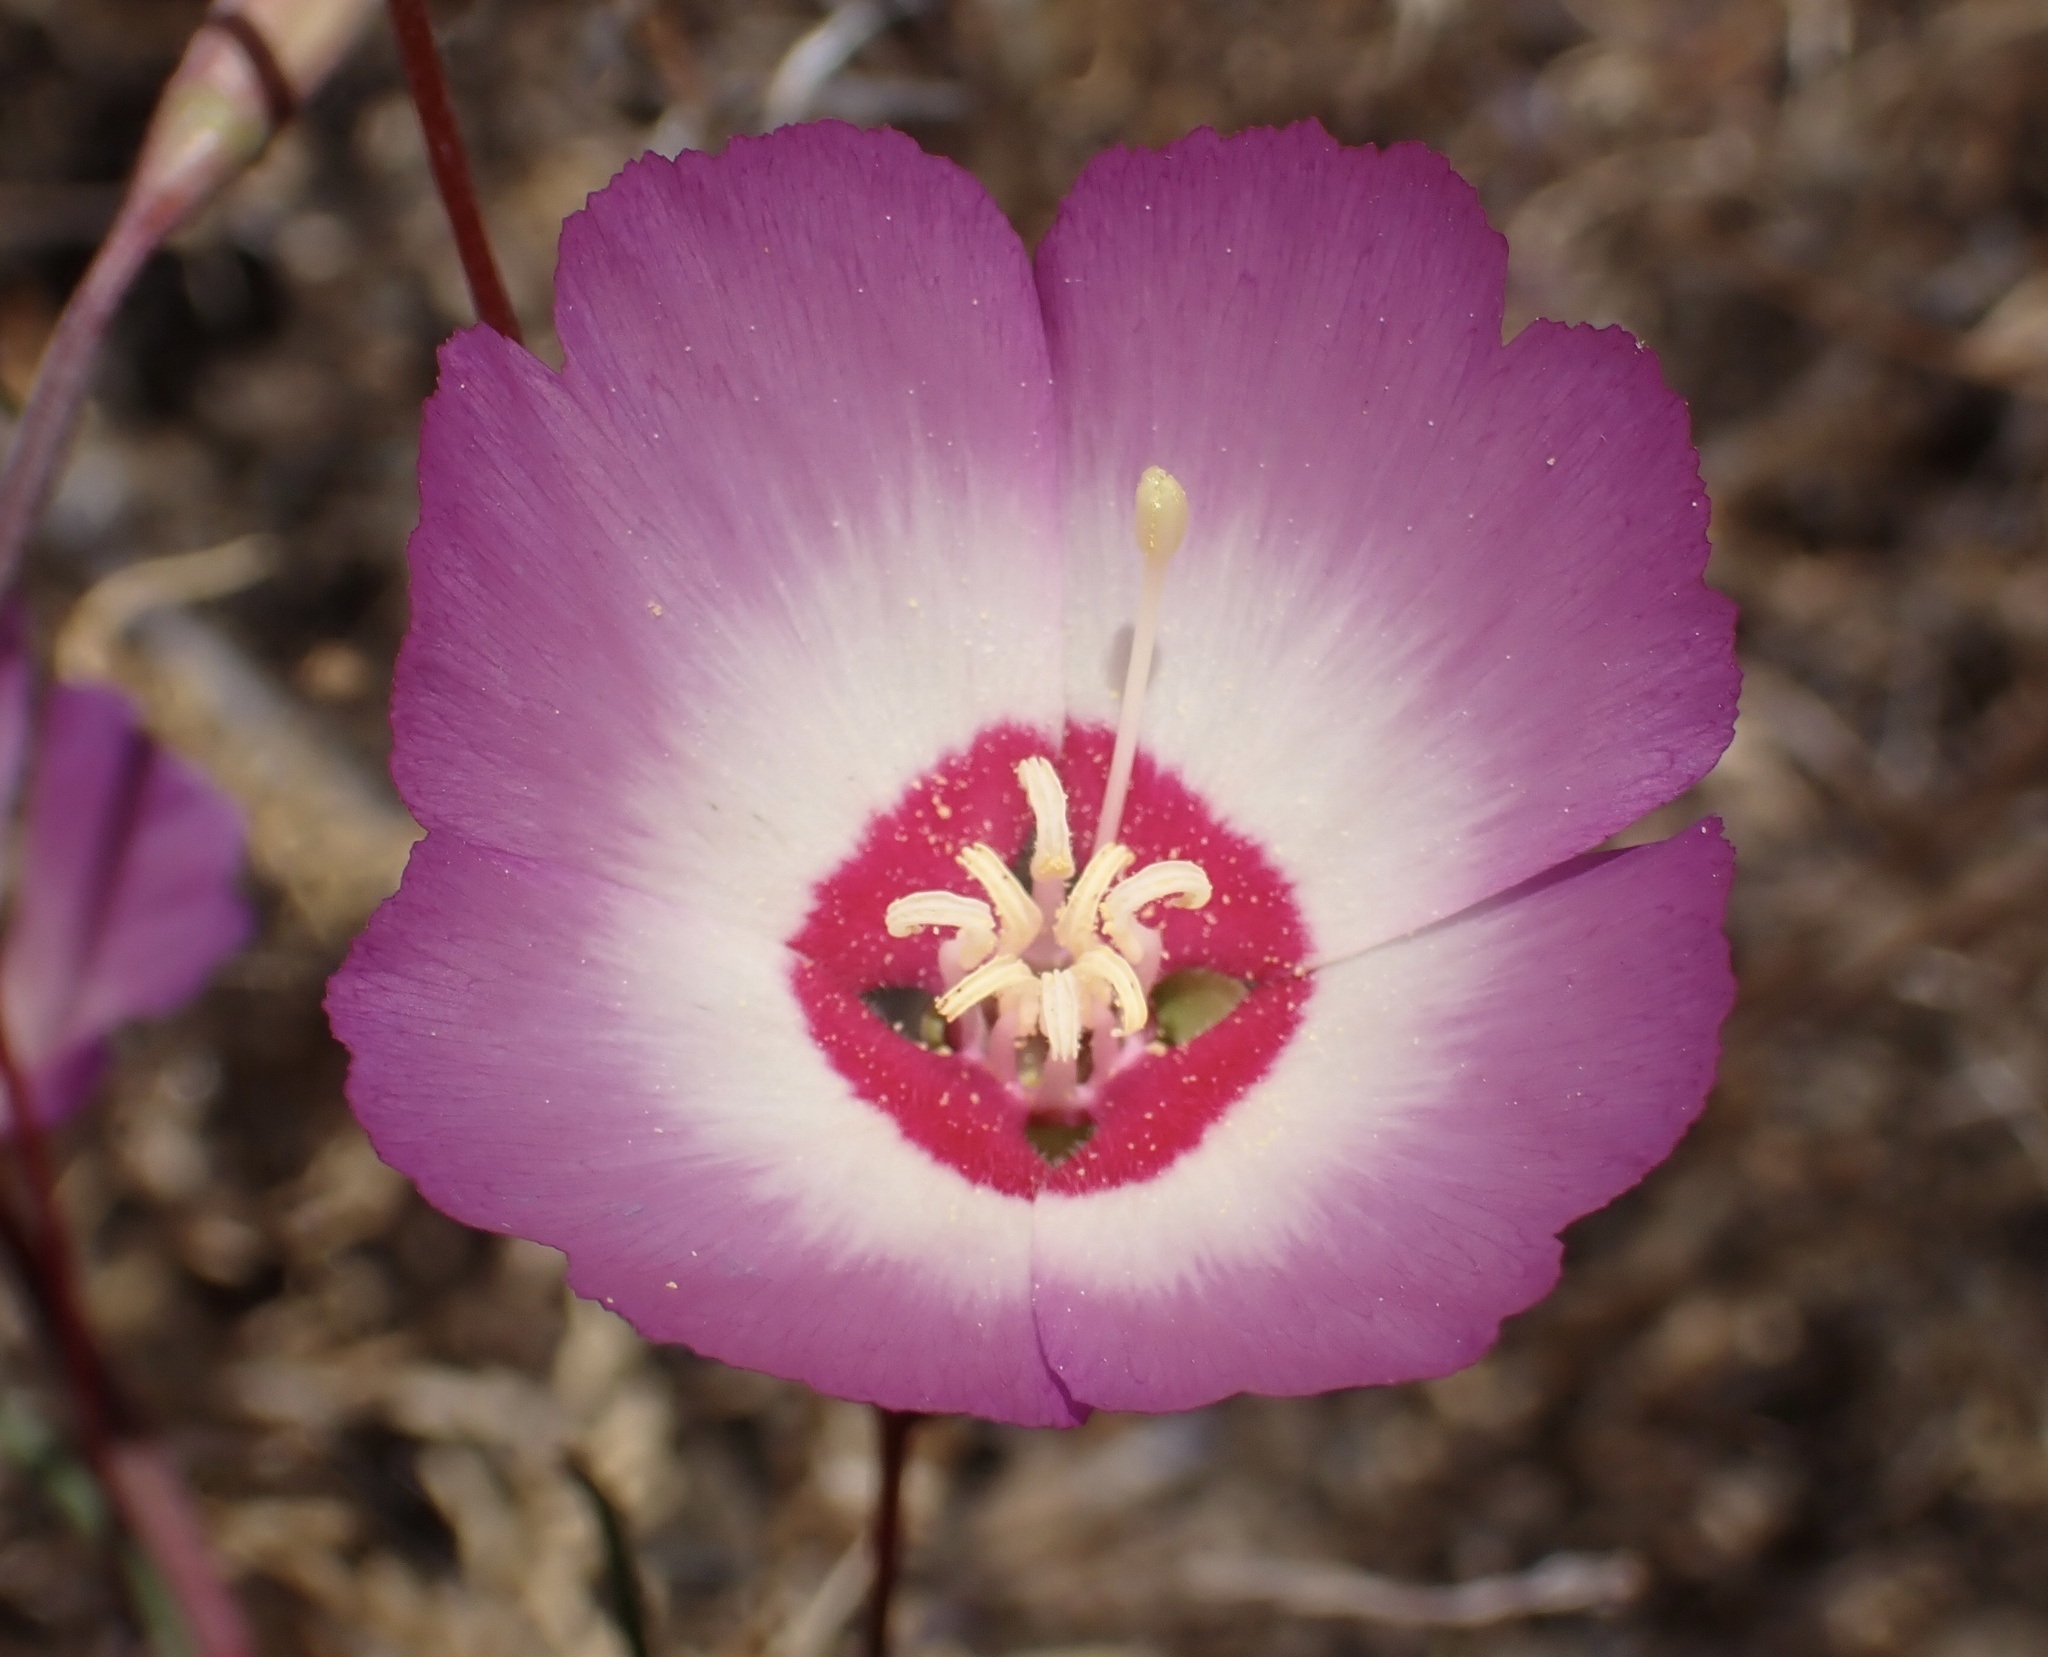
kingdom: Plantae
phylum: Tracheophyta
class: Magnoliopsida
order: Myrtales
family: Onagraceae
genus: Clarkia
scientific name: Clarkia gracilis
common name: Graceful clarkia
